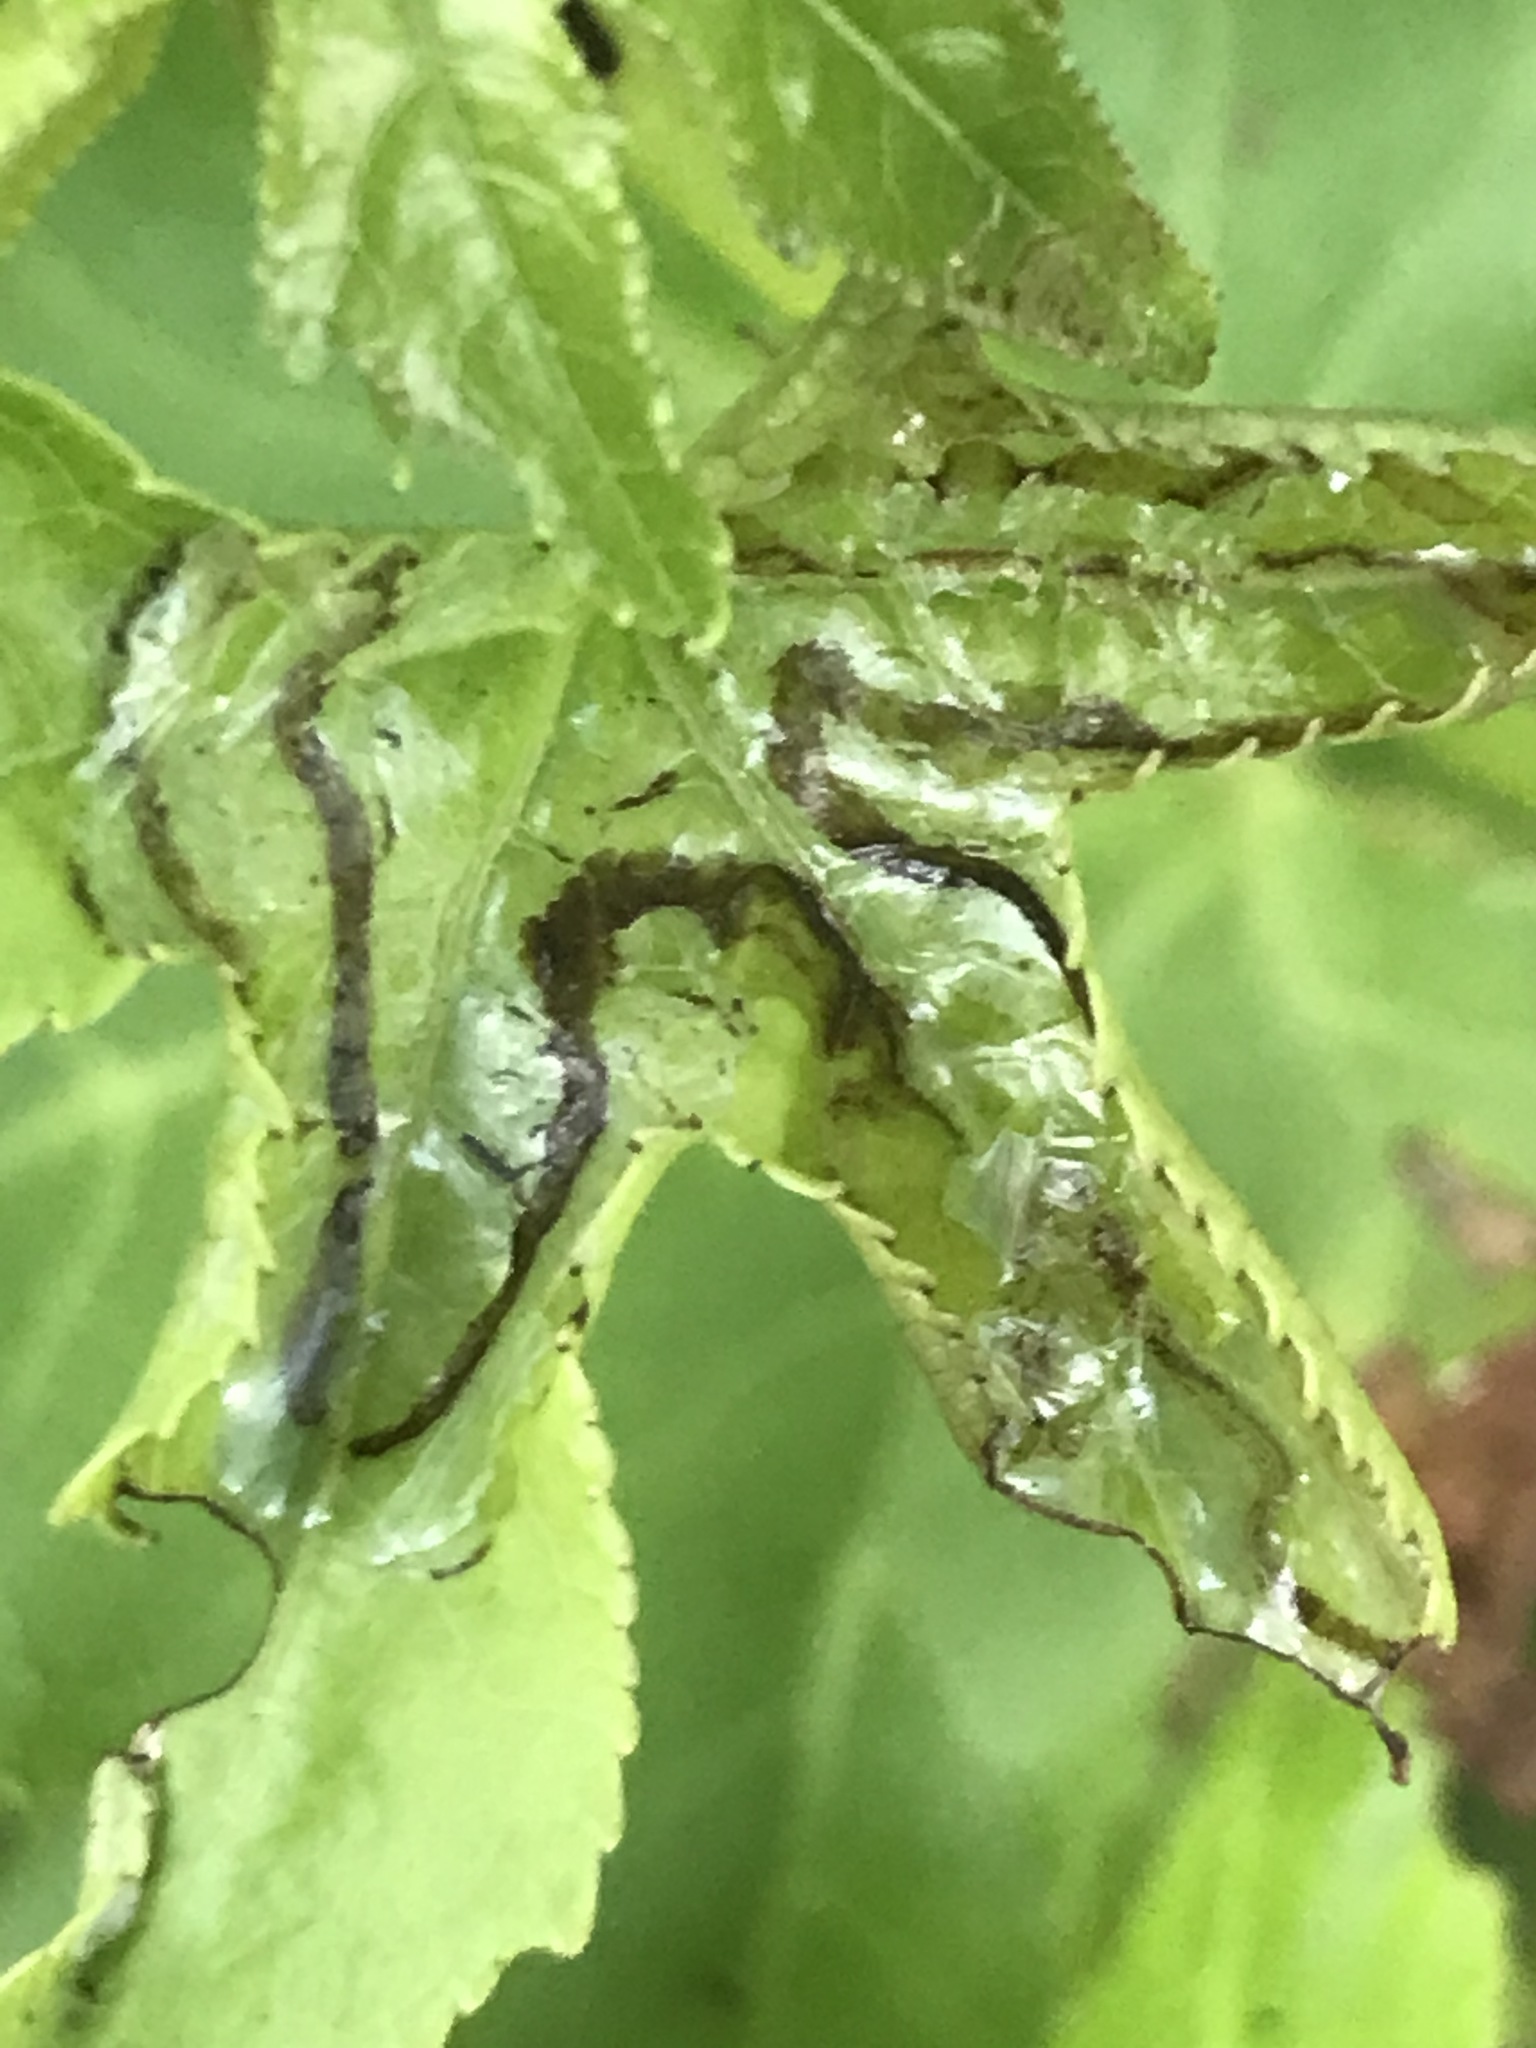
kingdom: Animalia
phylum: Arthropoda
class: Insecta
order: Lepidoptera
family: Gracillariidae
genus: Phyllocnistis
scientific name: Phyllocnistis liquidambarisella
